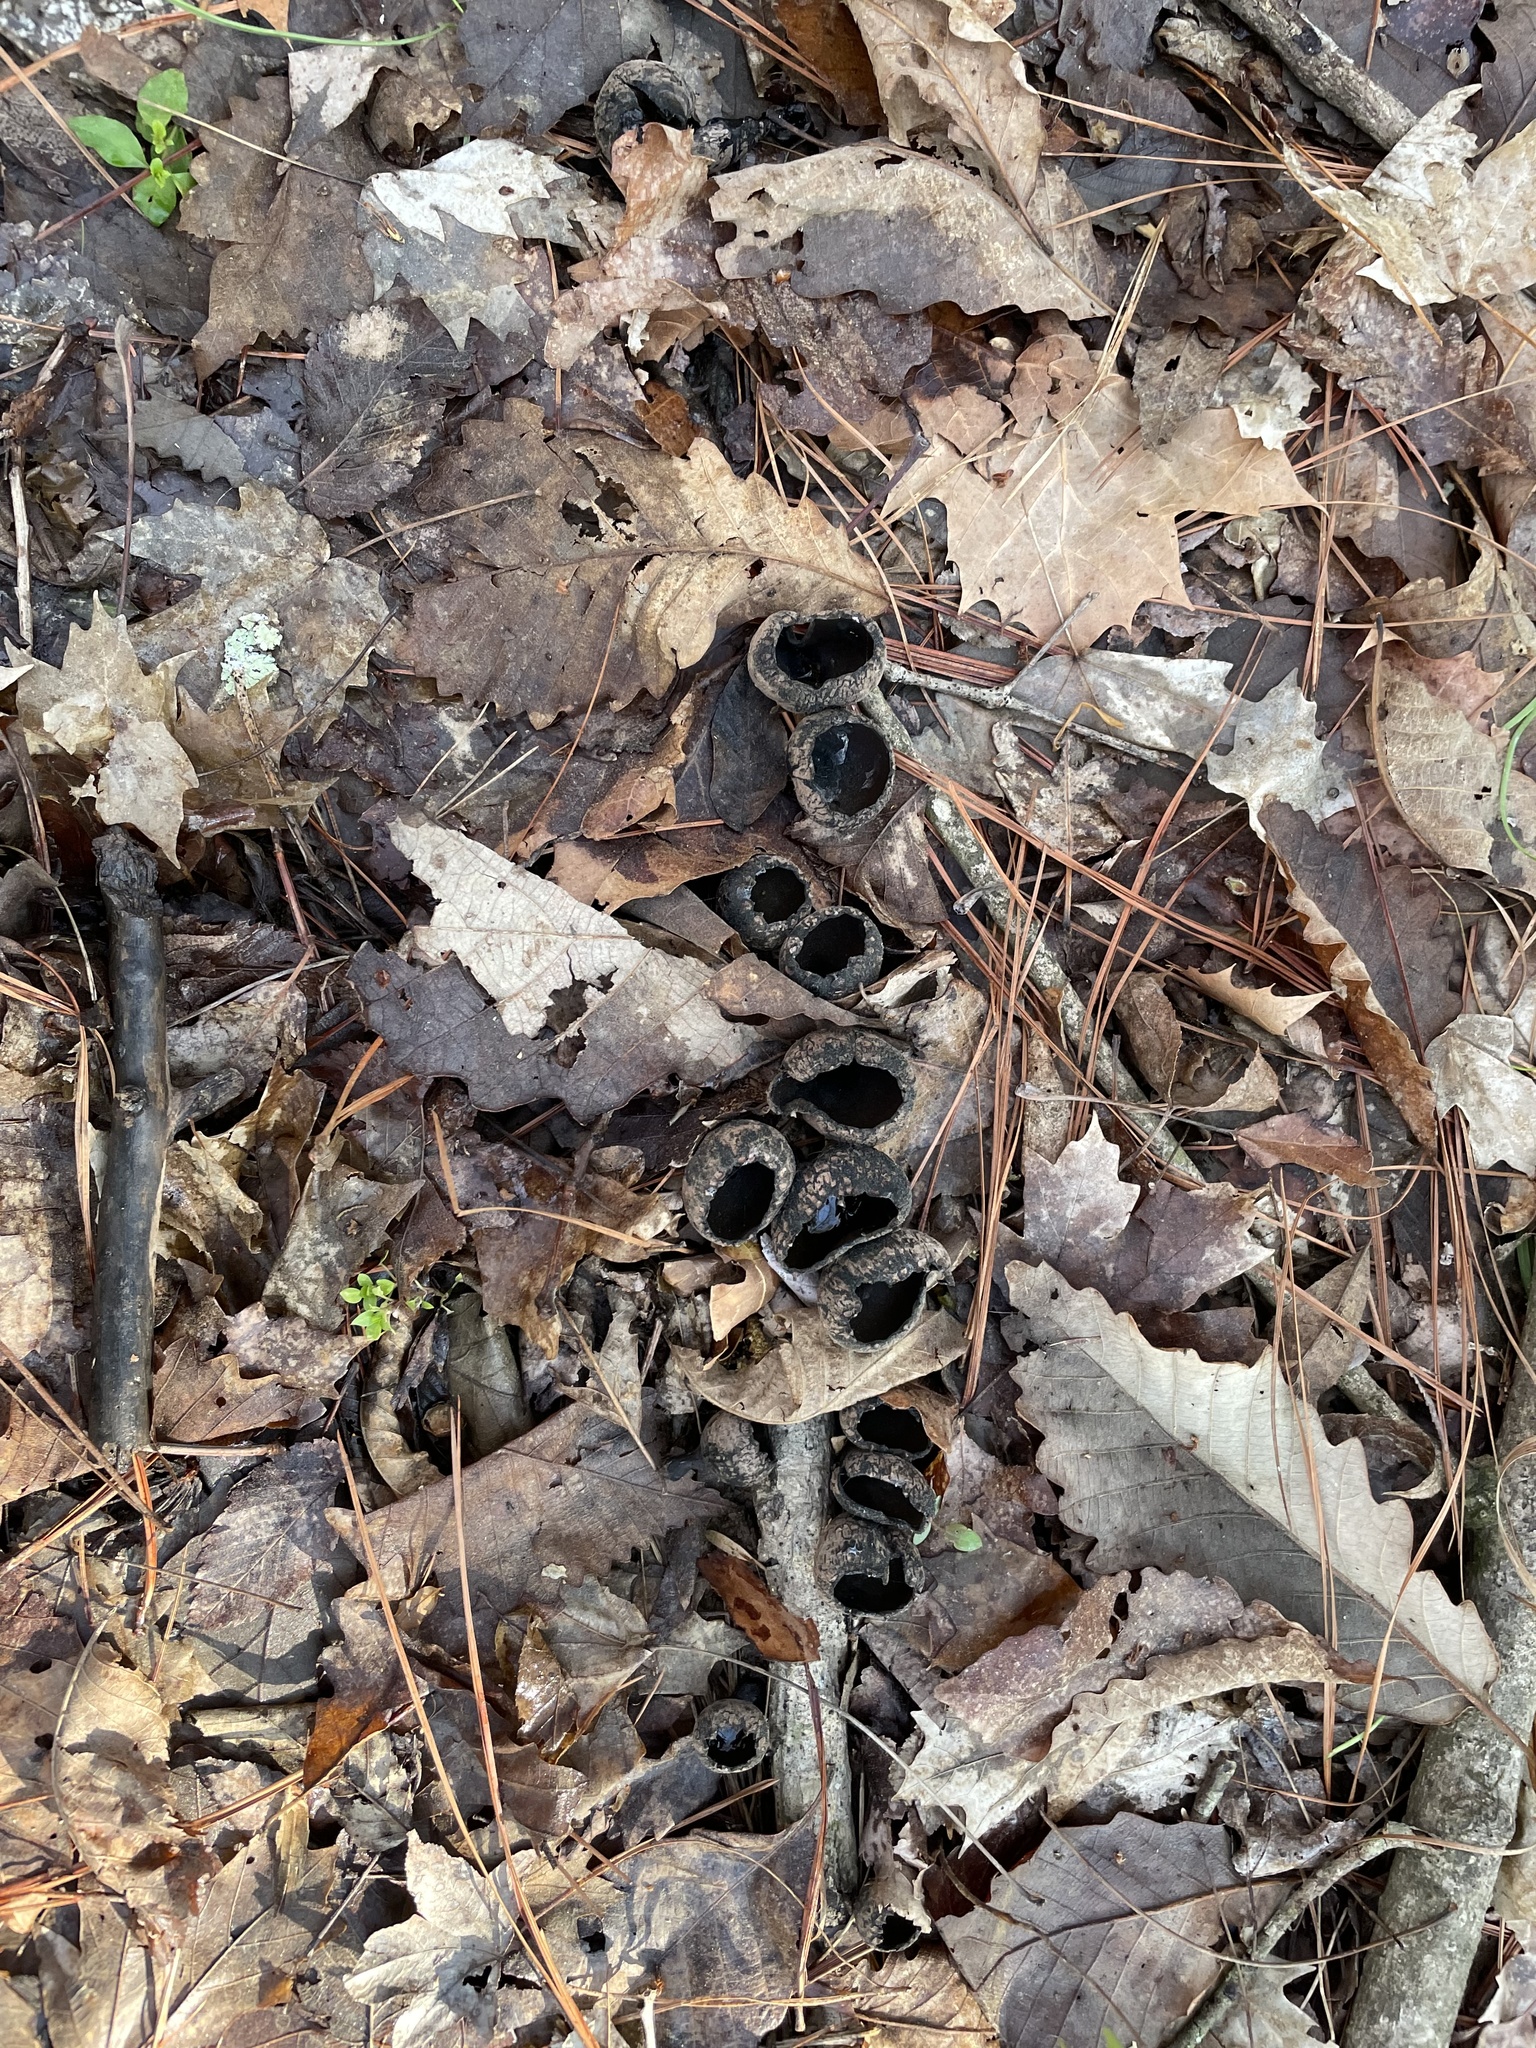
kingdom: Fungi
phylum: Ascomycota
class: Pezizomycetes
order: Pezizales
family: Sarcosomataceae
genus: Urnula
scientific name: Urnula craterium
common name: Devil's urn
